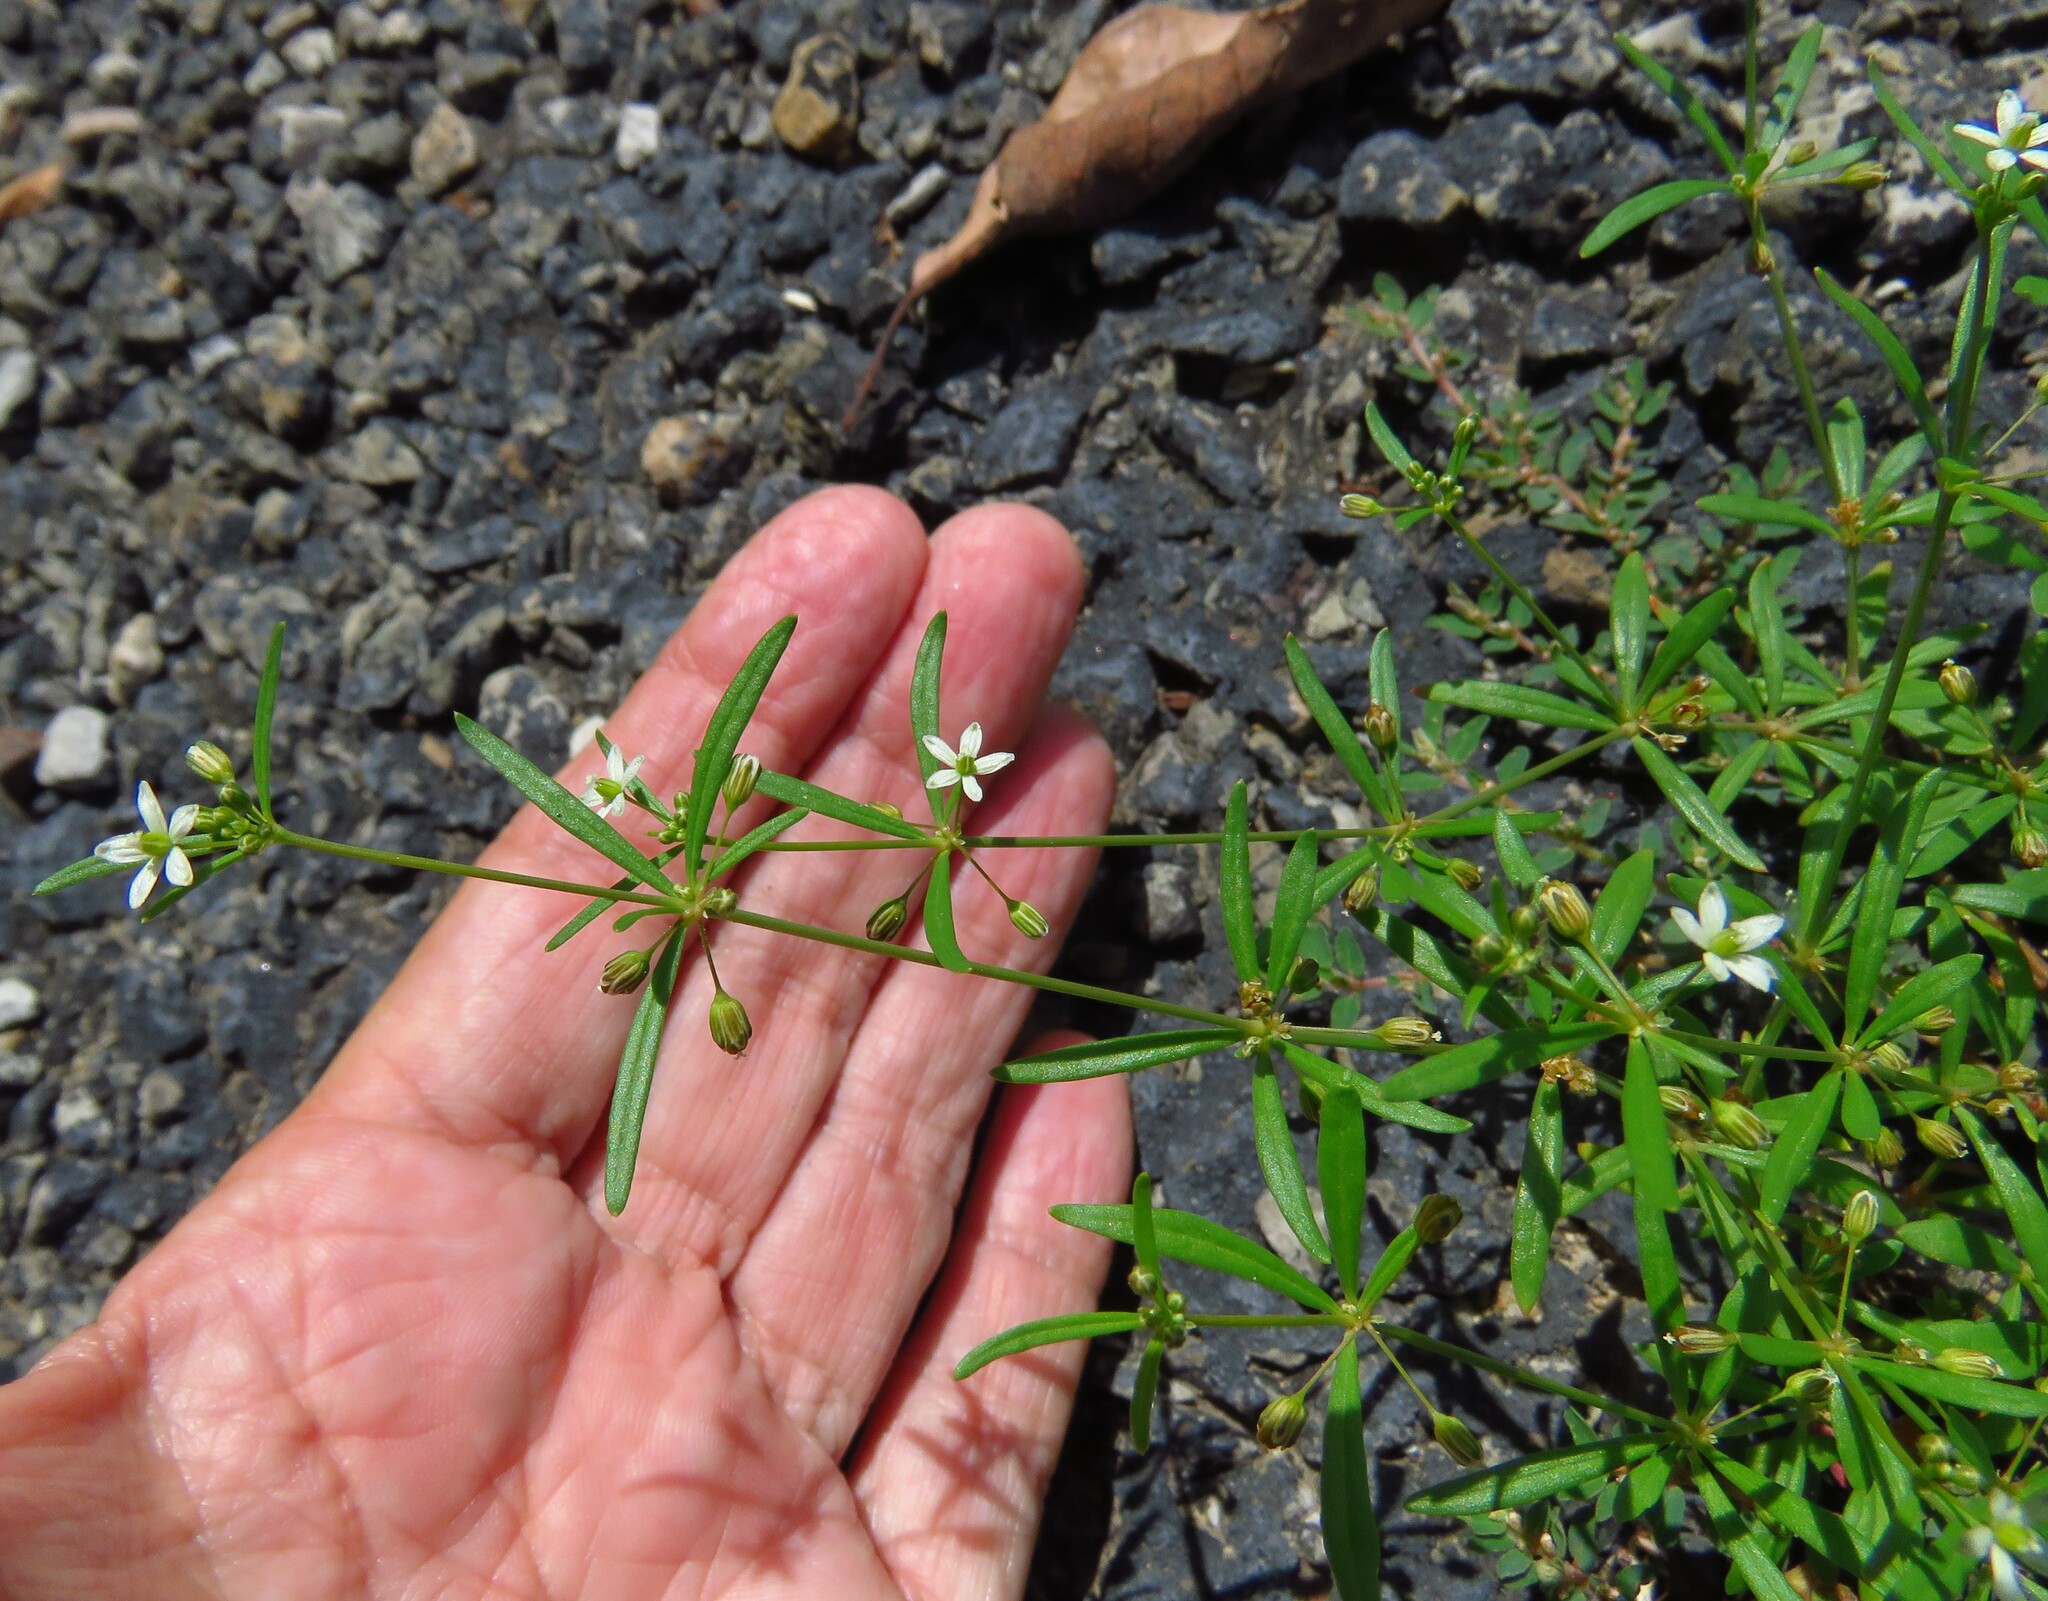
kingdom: Plantae
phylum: Tracheophyta
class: Magnoliopsida
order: Caryophyllales
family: Molluginaceae
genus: Mollugo
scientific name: Mollugo verticillata
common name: Green carpetweed
